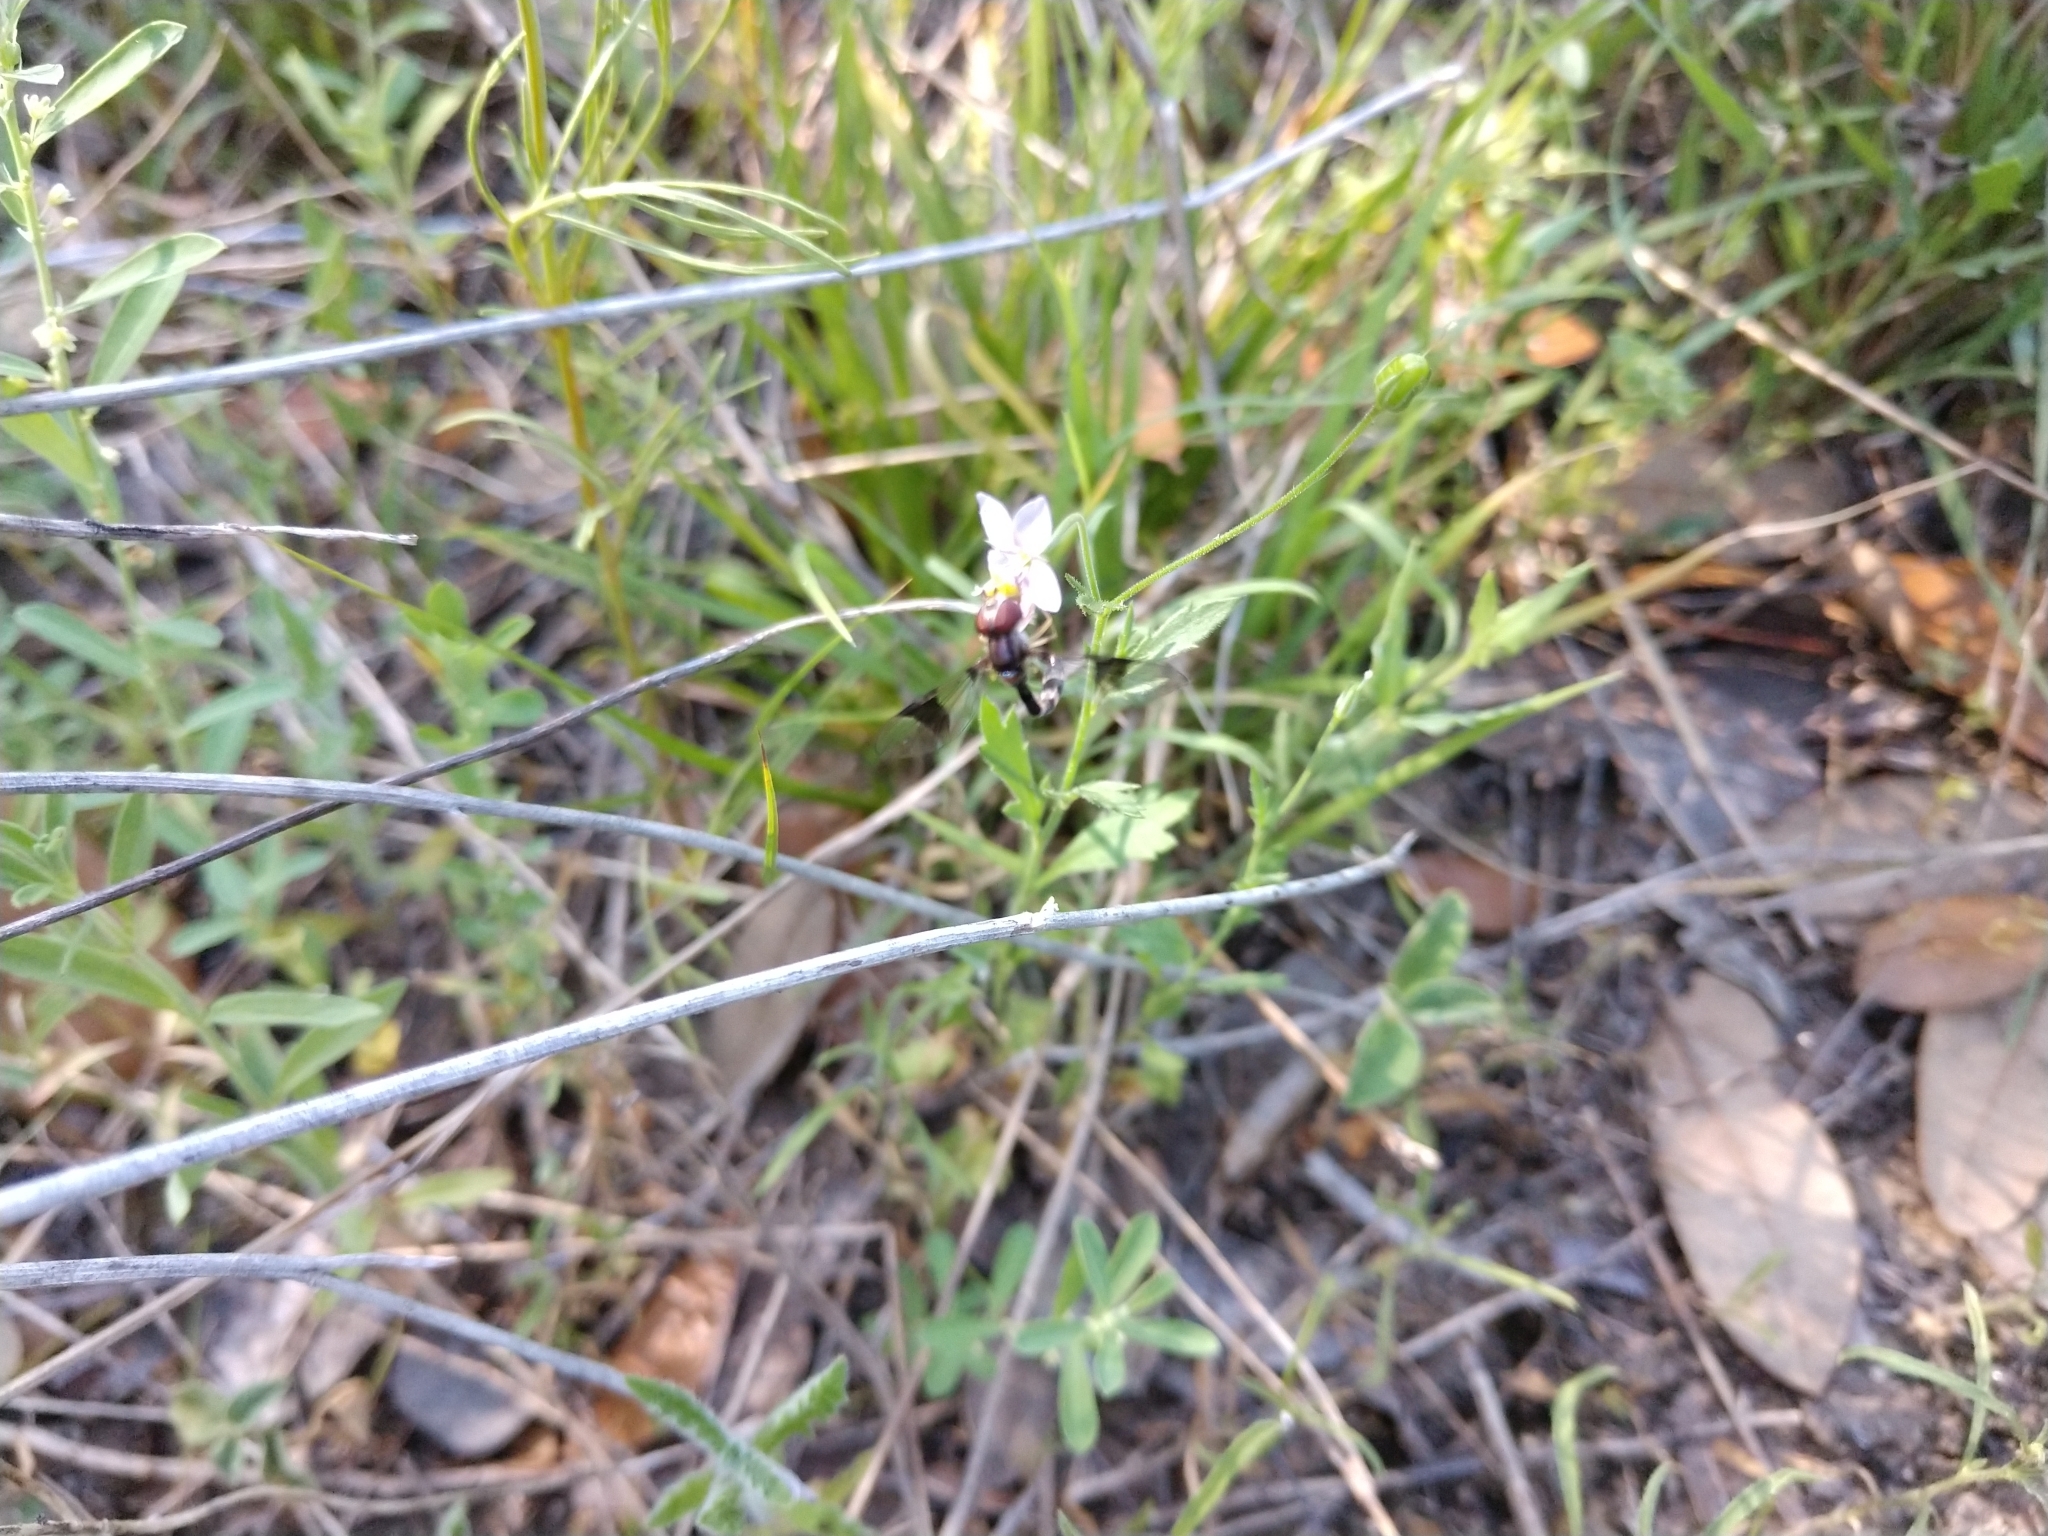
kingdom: Animalia
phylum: Arthropoda
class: Insecta
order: Diptera
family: Syrphidae
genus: Hypocritanus
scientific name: Hypocritanus fascipennis
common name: Eastern band-winged hover fly
